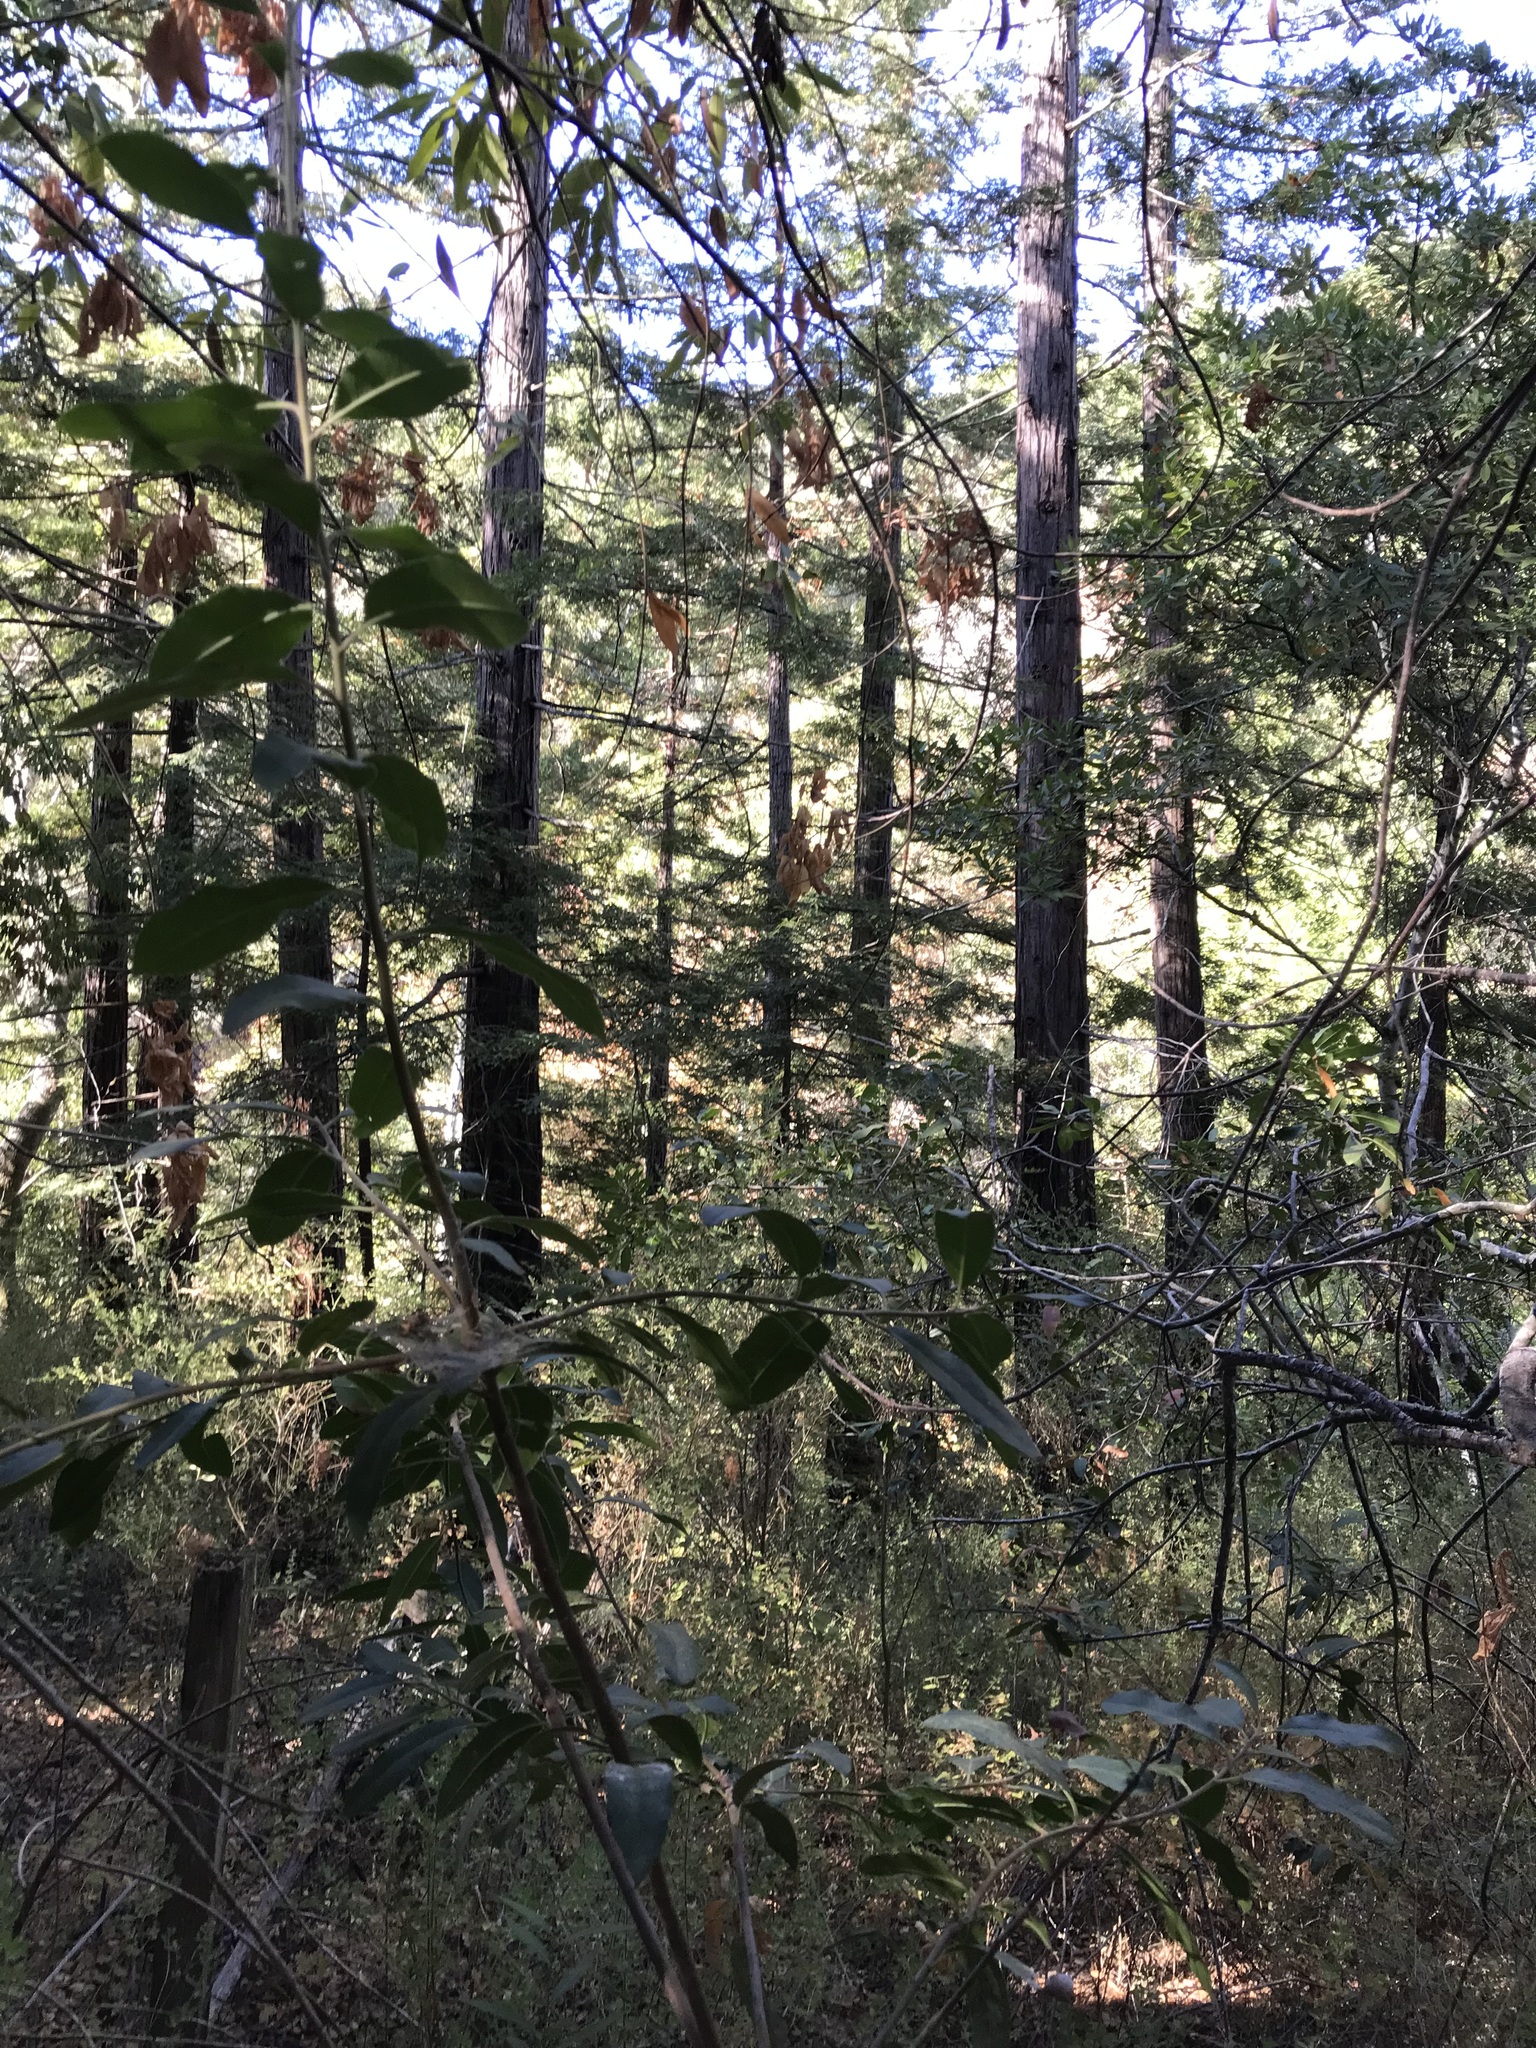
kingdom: Plantae
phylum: Tracheophyta
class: Pinopsida
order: Pinales
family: Cupressaceae
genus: Sequoia
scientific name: Sequoia sempervirens
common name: Coast redwood
